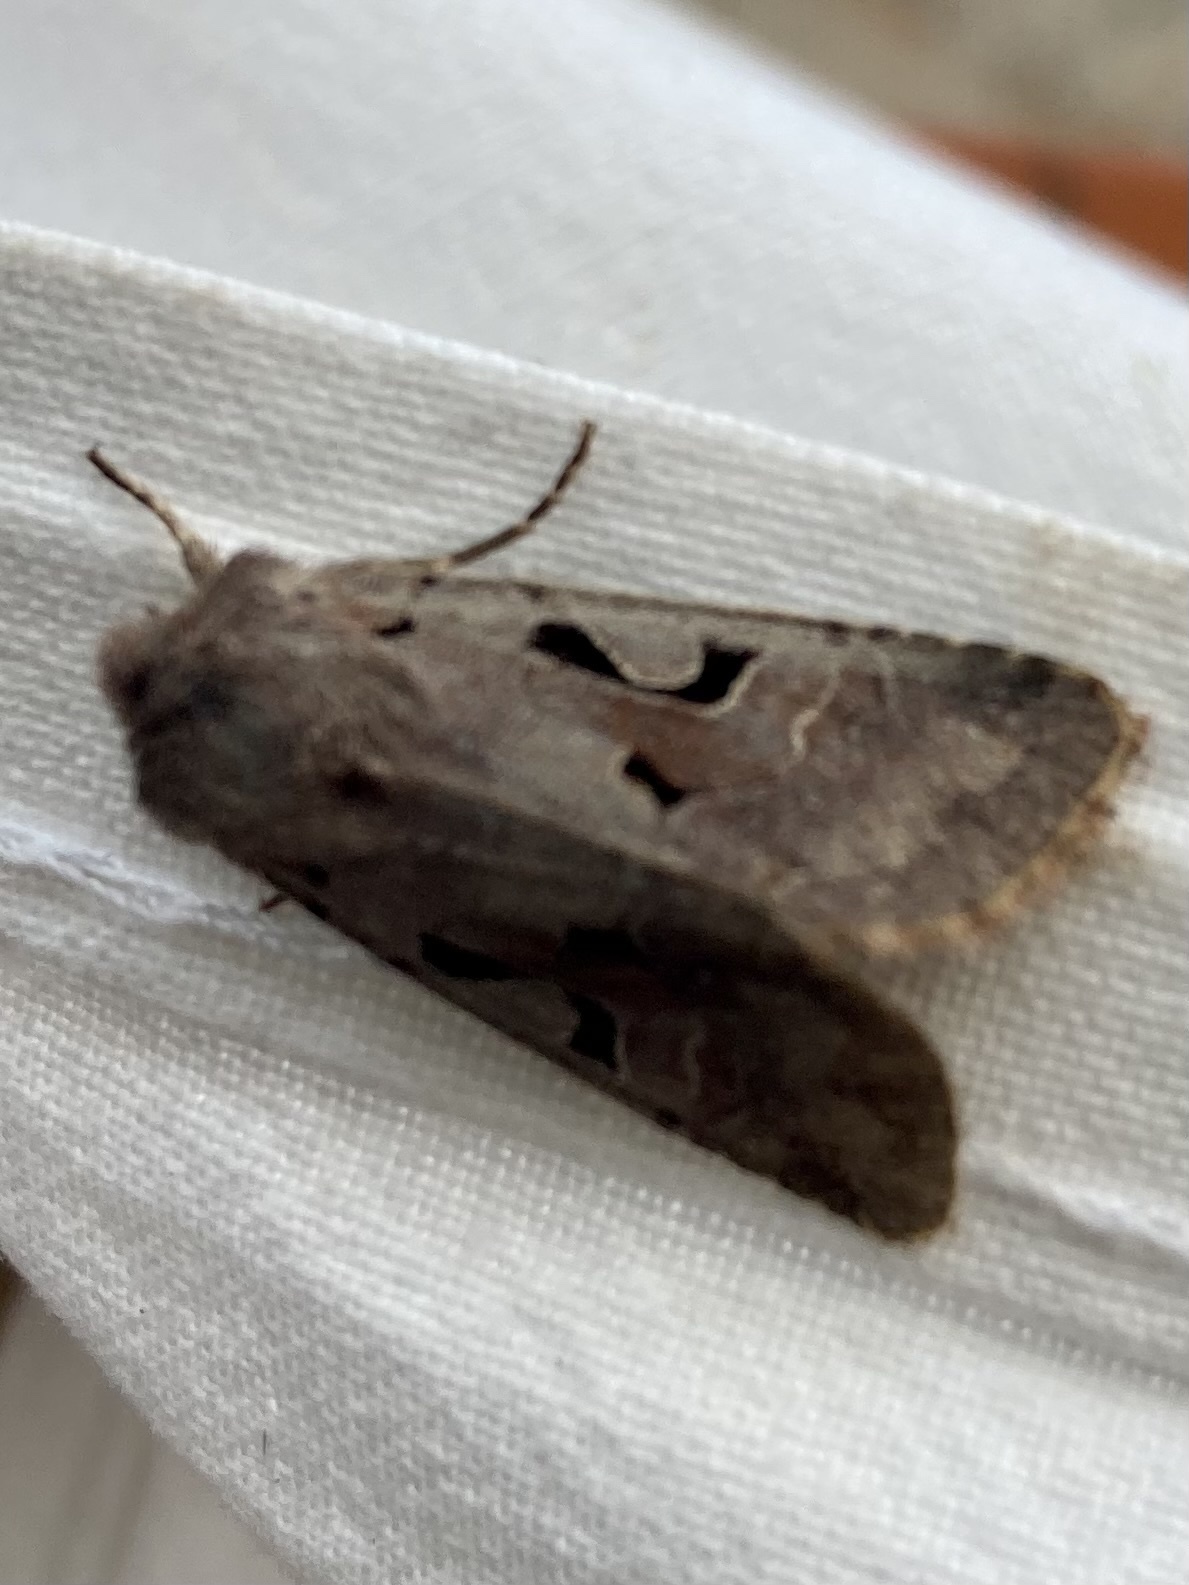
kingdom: Animalia
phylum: Arthropoda
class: Insecta
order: Lepidoptera
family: Noctuidae
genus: Orthosia
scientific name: Orthosia gothica
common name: Hebrew character
